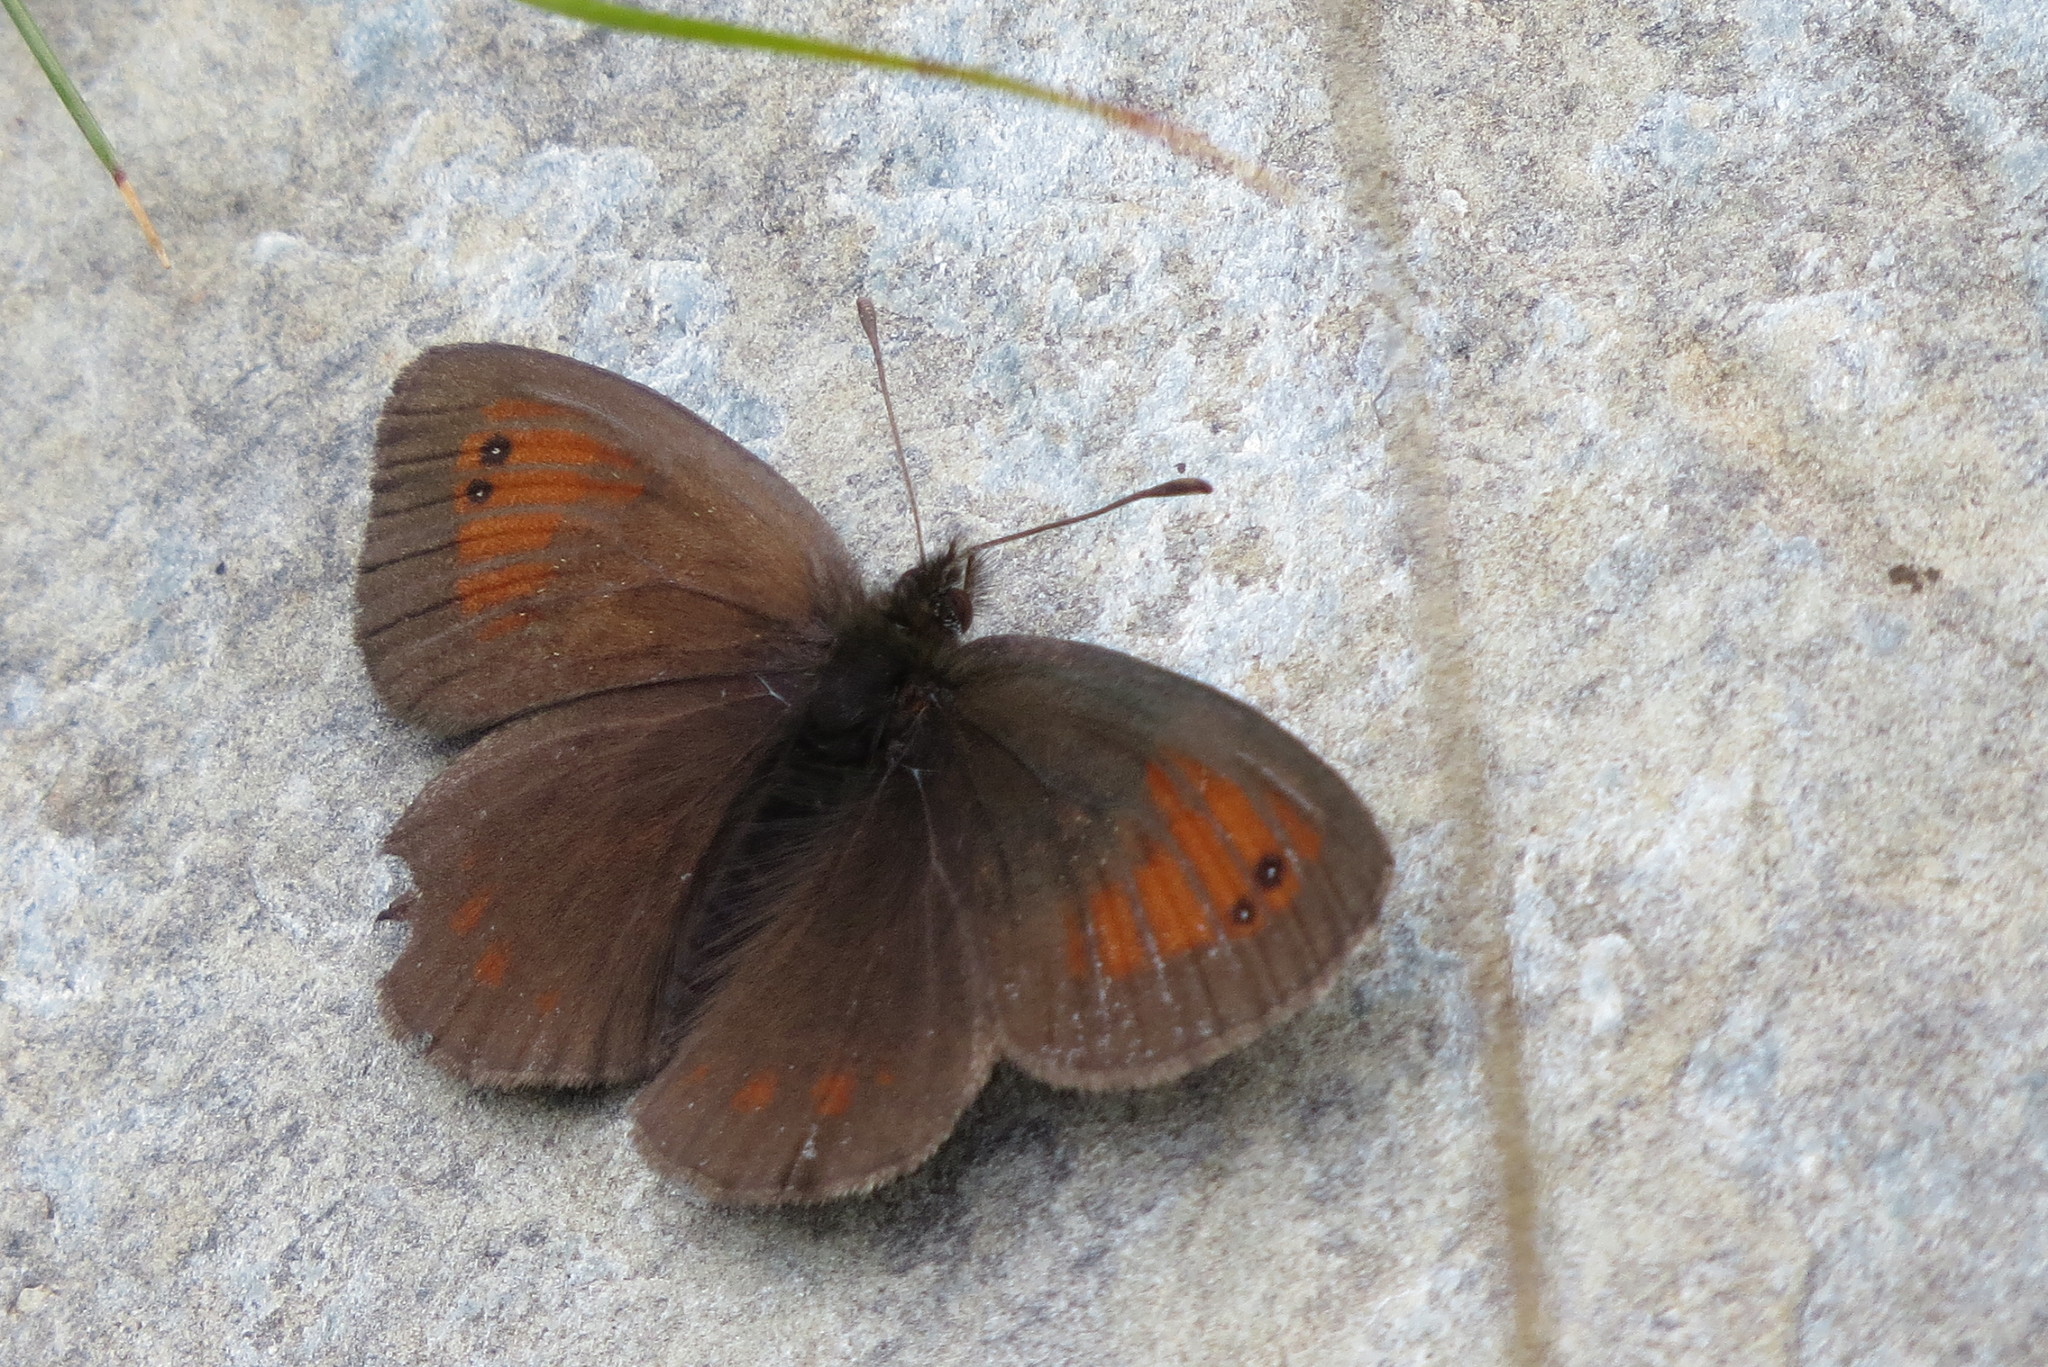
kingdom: Animalia
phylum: Arthropoda
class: Insecta
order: Lepidoptera
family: Nymphalidae
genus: Erebia
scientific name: Erebia tyndarus
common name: Swiss brassy ringlet
